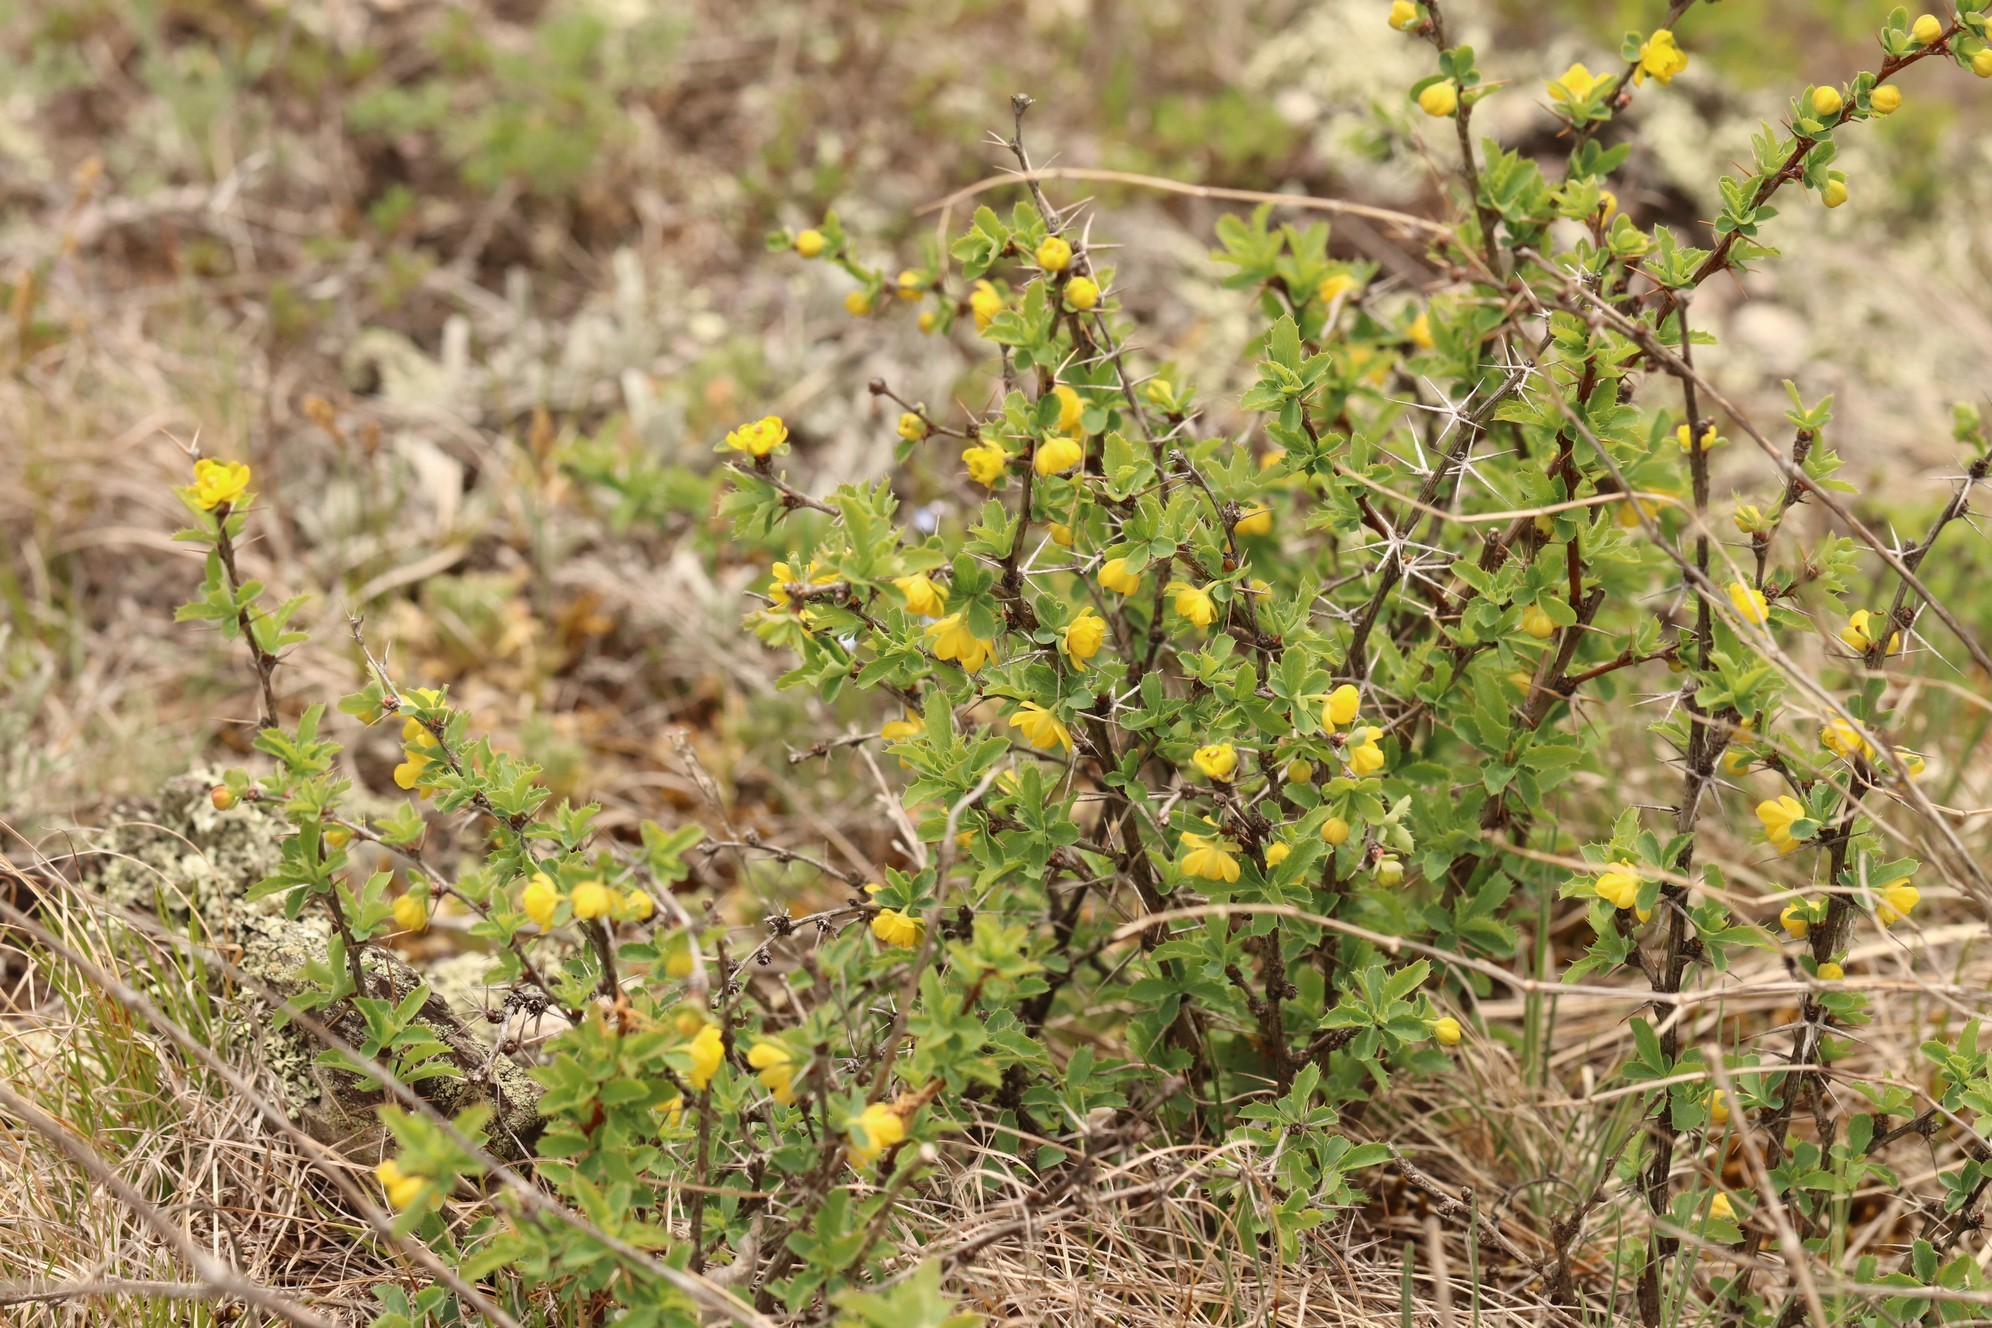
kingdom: Plantae
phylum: Tracheophyta
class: Magnoliopsida
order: Ranunculales
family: Berberidaceae
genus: Berberis
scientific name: Berberis sibirica
